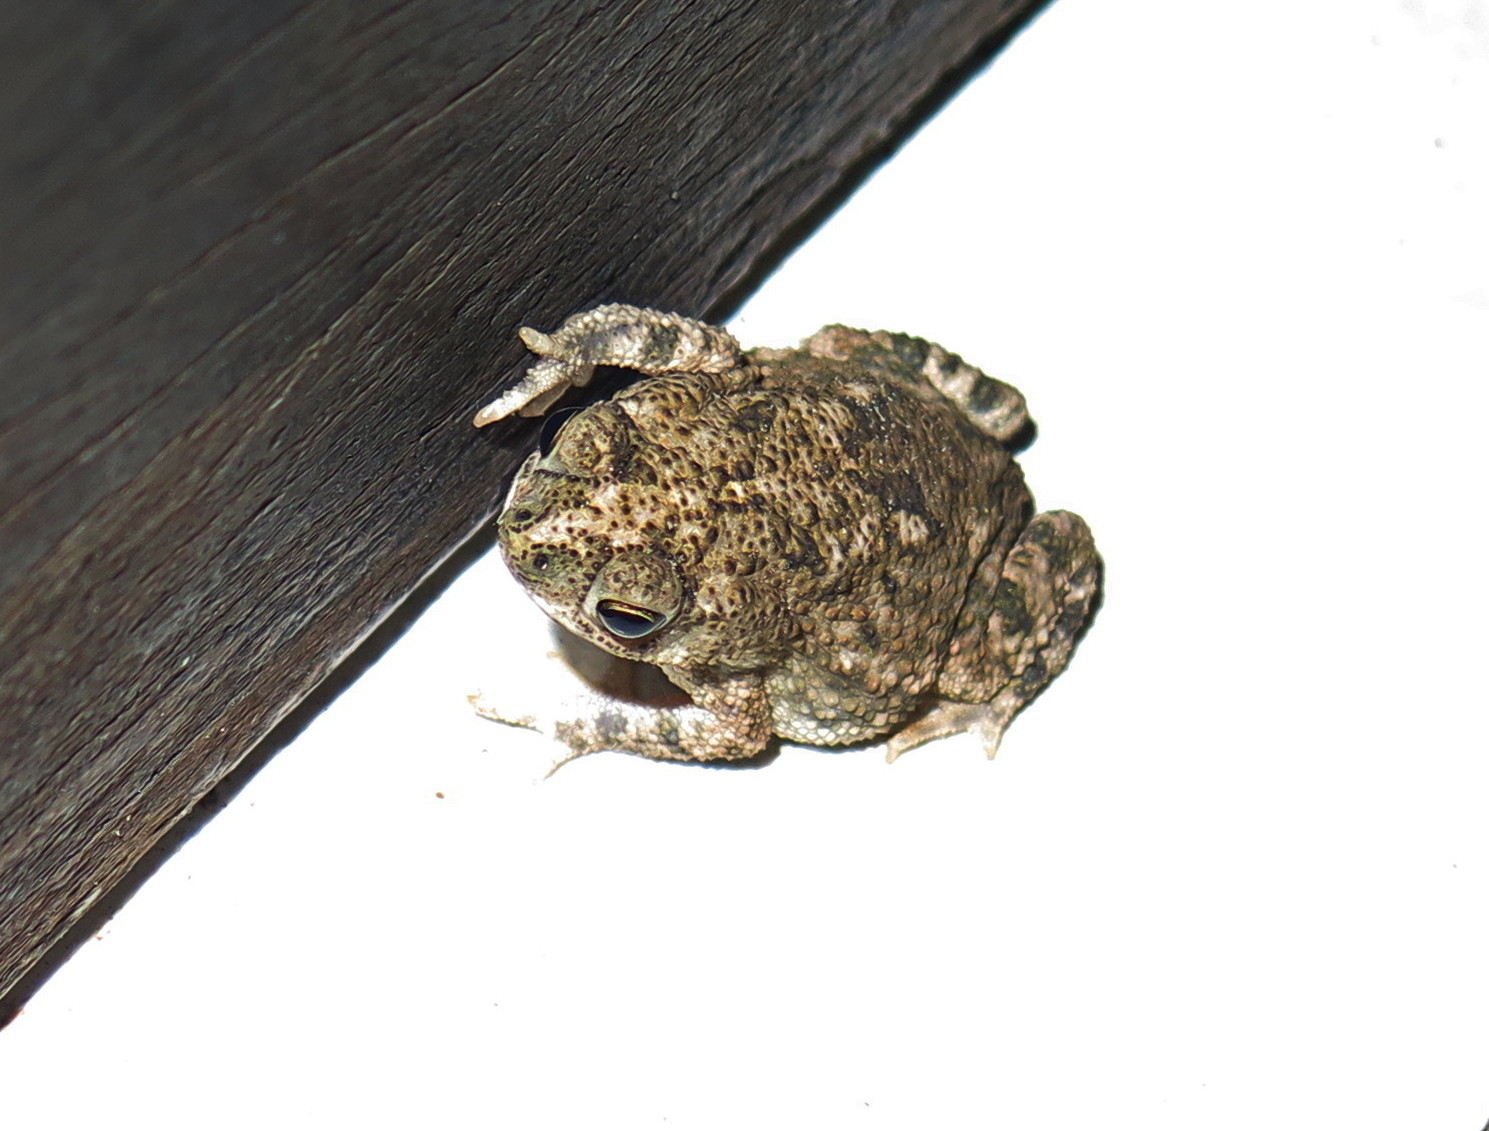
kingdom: Animalia
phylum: Chordata
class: Amphibia
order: Anura
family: Bufonidae
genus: Rhinella
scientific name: Rhinella granulosa
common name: Common lesser toad
